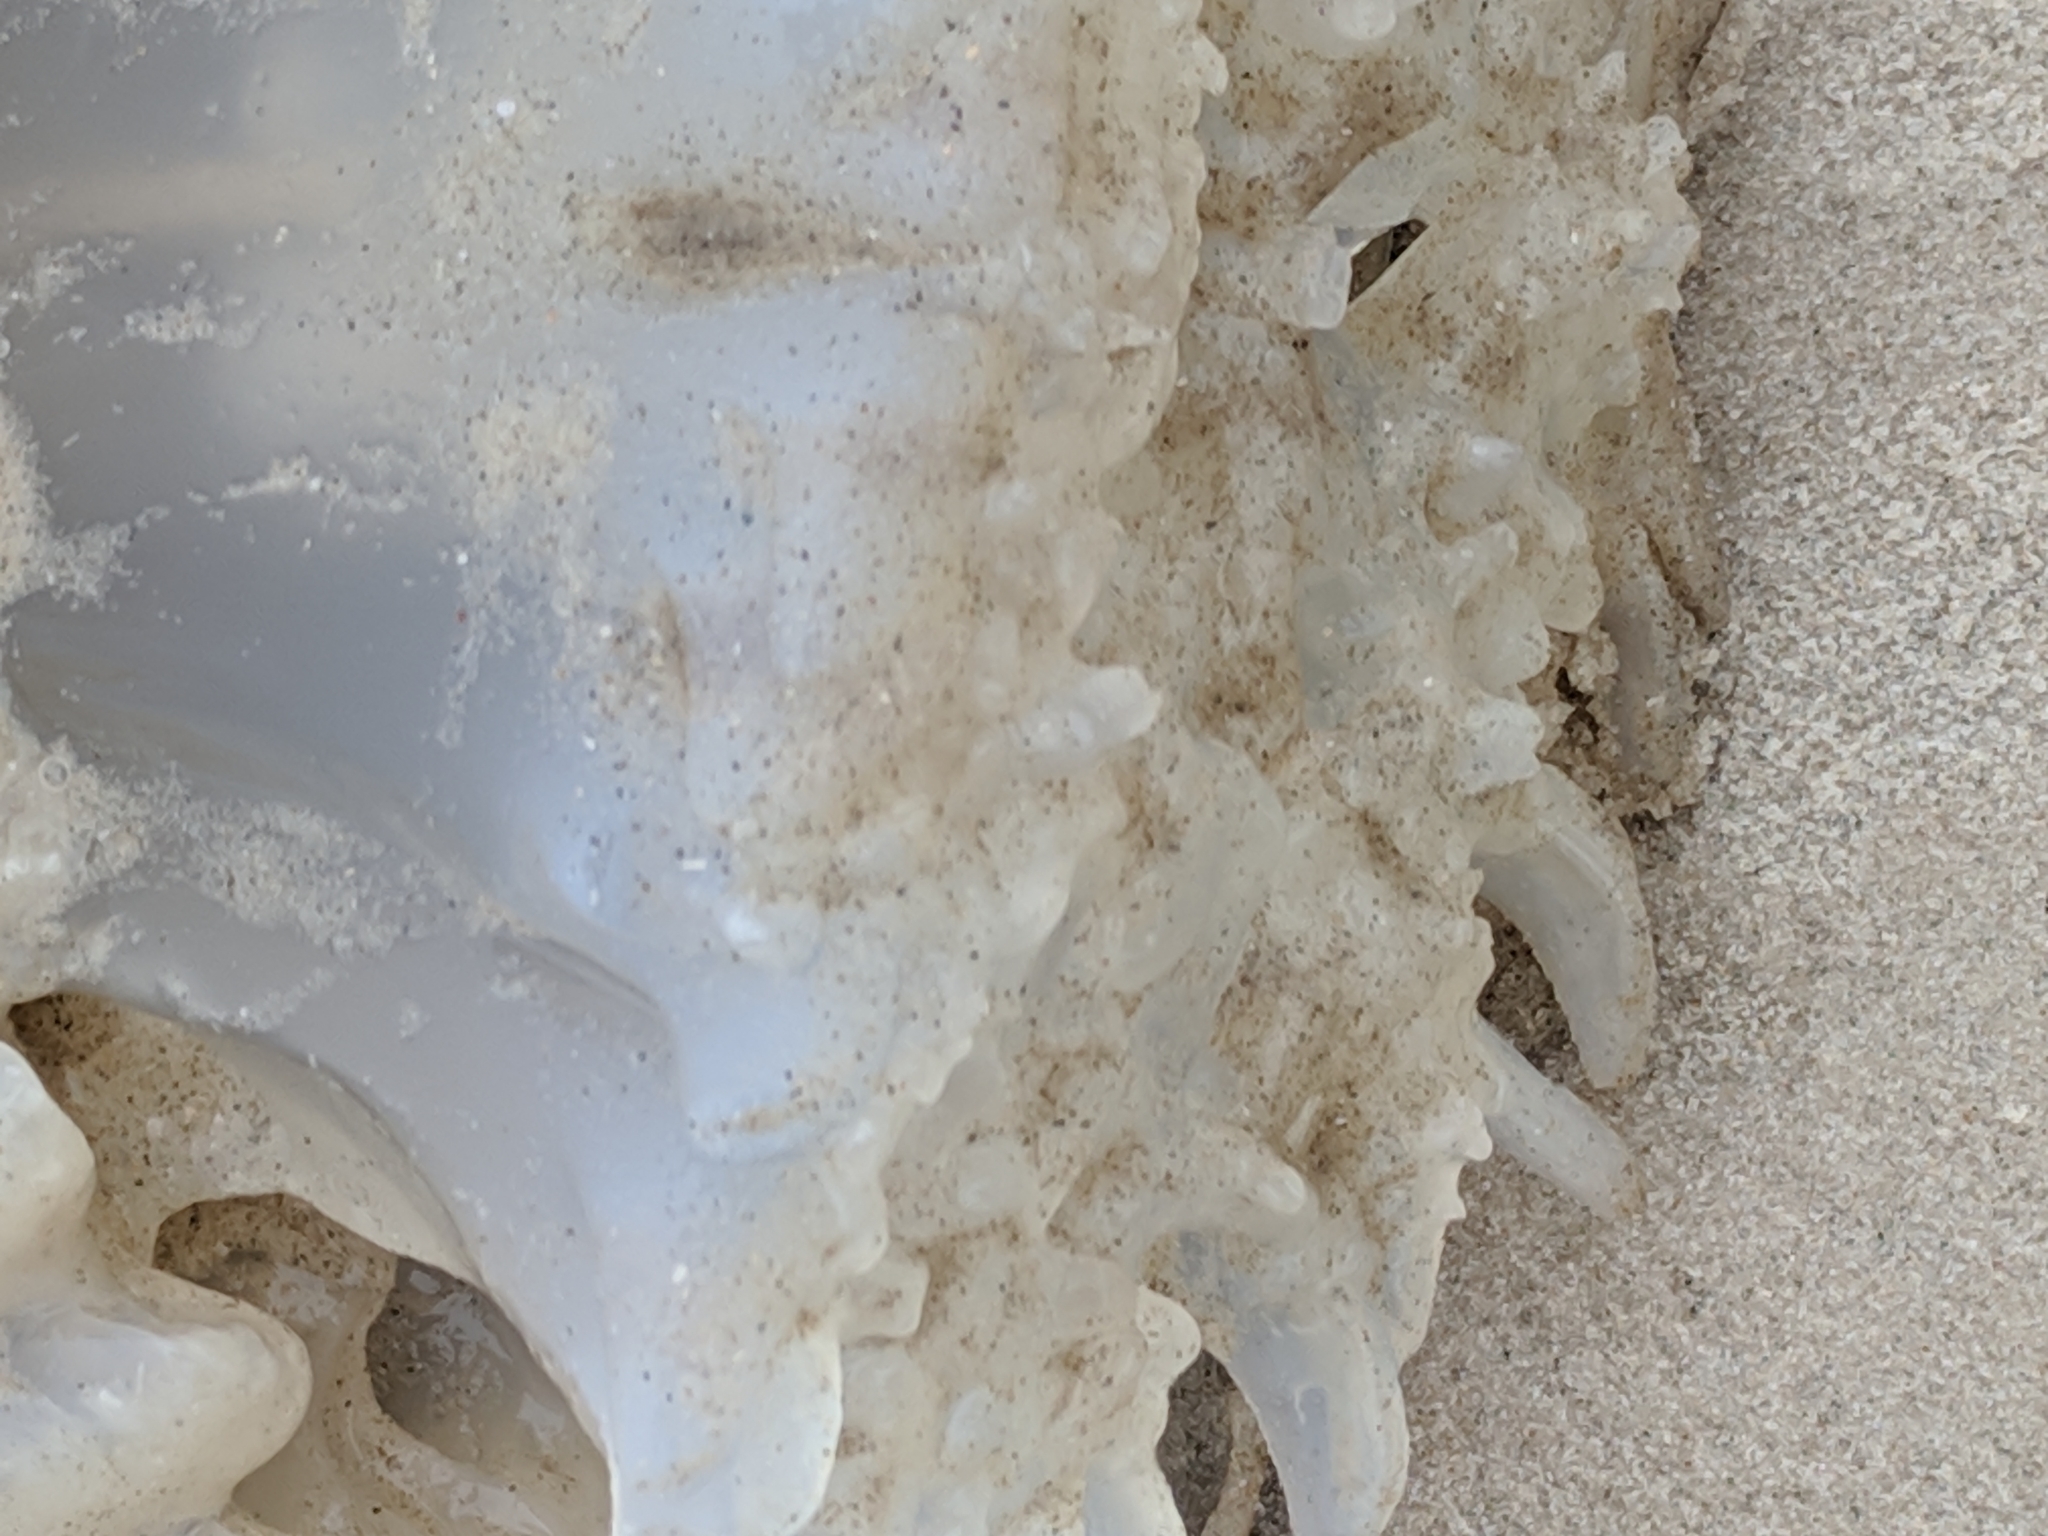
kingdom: Animalia
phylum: Cnidaria
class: Scyphozoa
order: Rhizostomeae
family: Stomolophidae
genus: Stomolophus
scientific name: Stomolophus meleagris
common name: Cabbagehead
